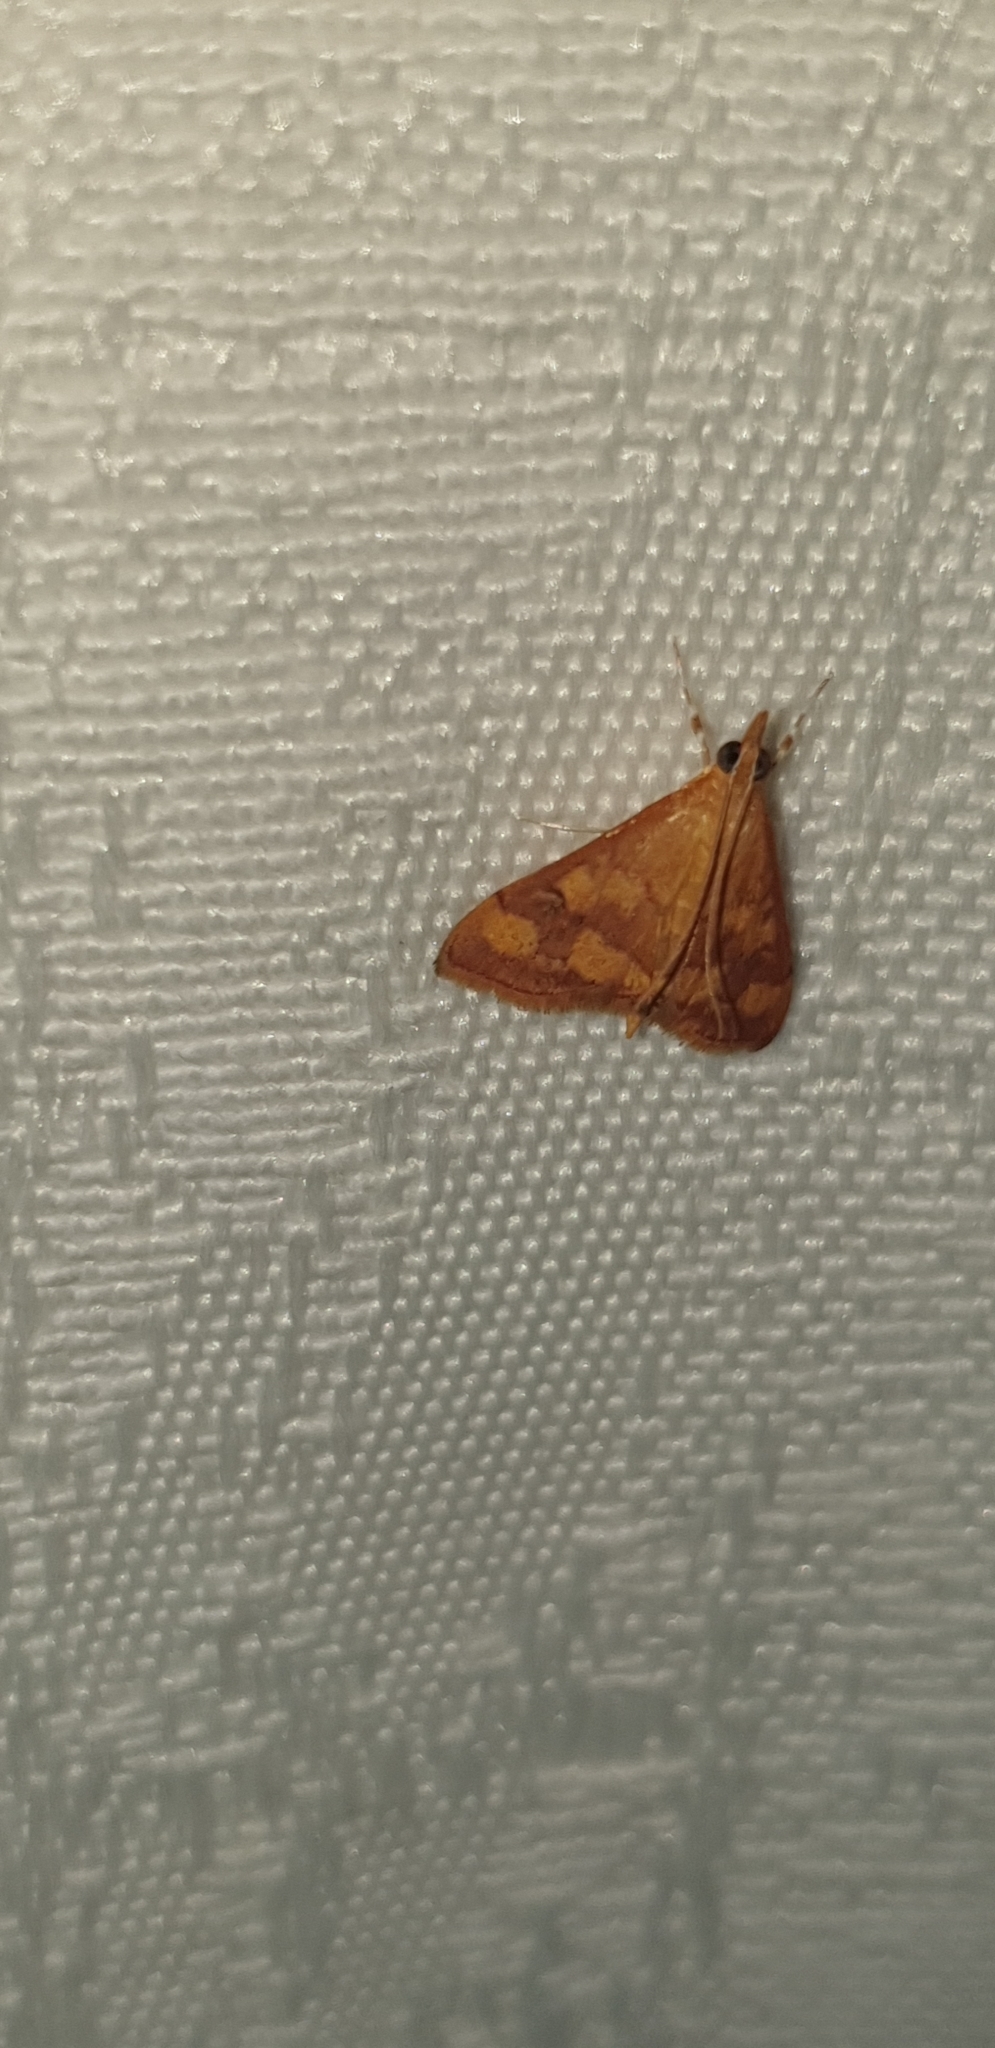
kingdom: Animalia
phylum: Arthropoda
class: Insecta
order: Lepidoptera
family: Crambidae
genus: Pyrausta
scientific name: Pyrausta phoenicealis
